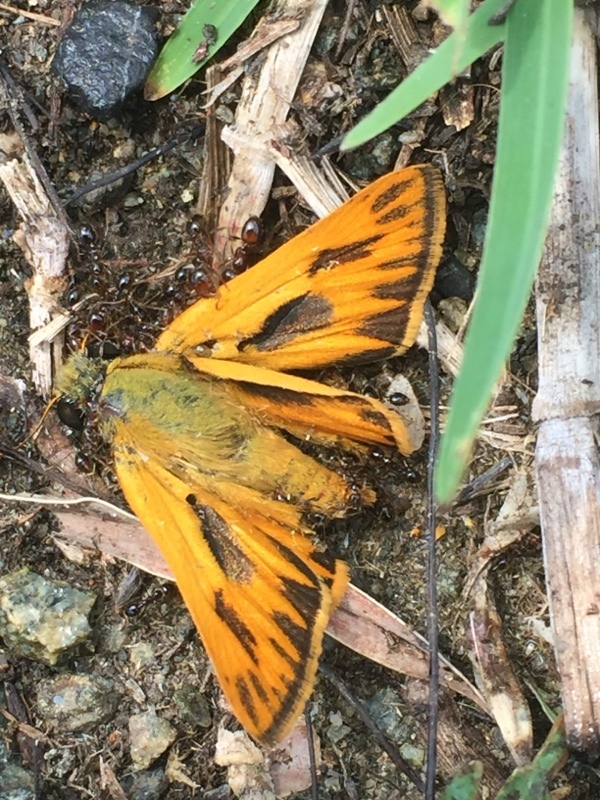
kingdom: Animalia
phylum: Arthropoda
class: Insecta
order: Lepidoptera
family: Hesperiidae
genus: Hylephila
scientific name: Hylephila phyleus
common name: Fiery skipper
